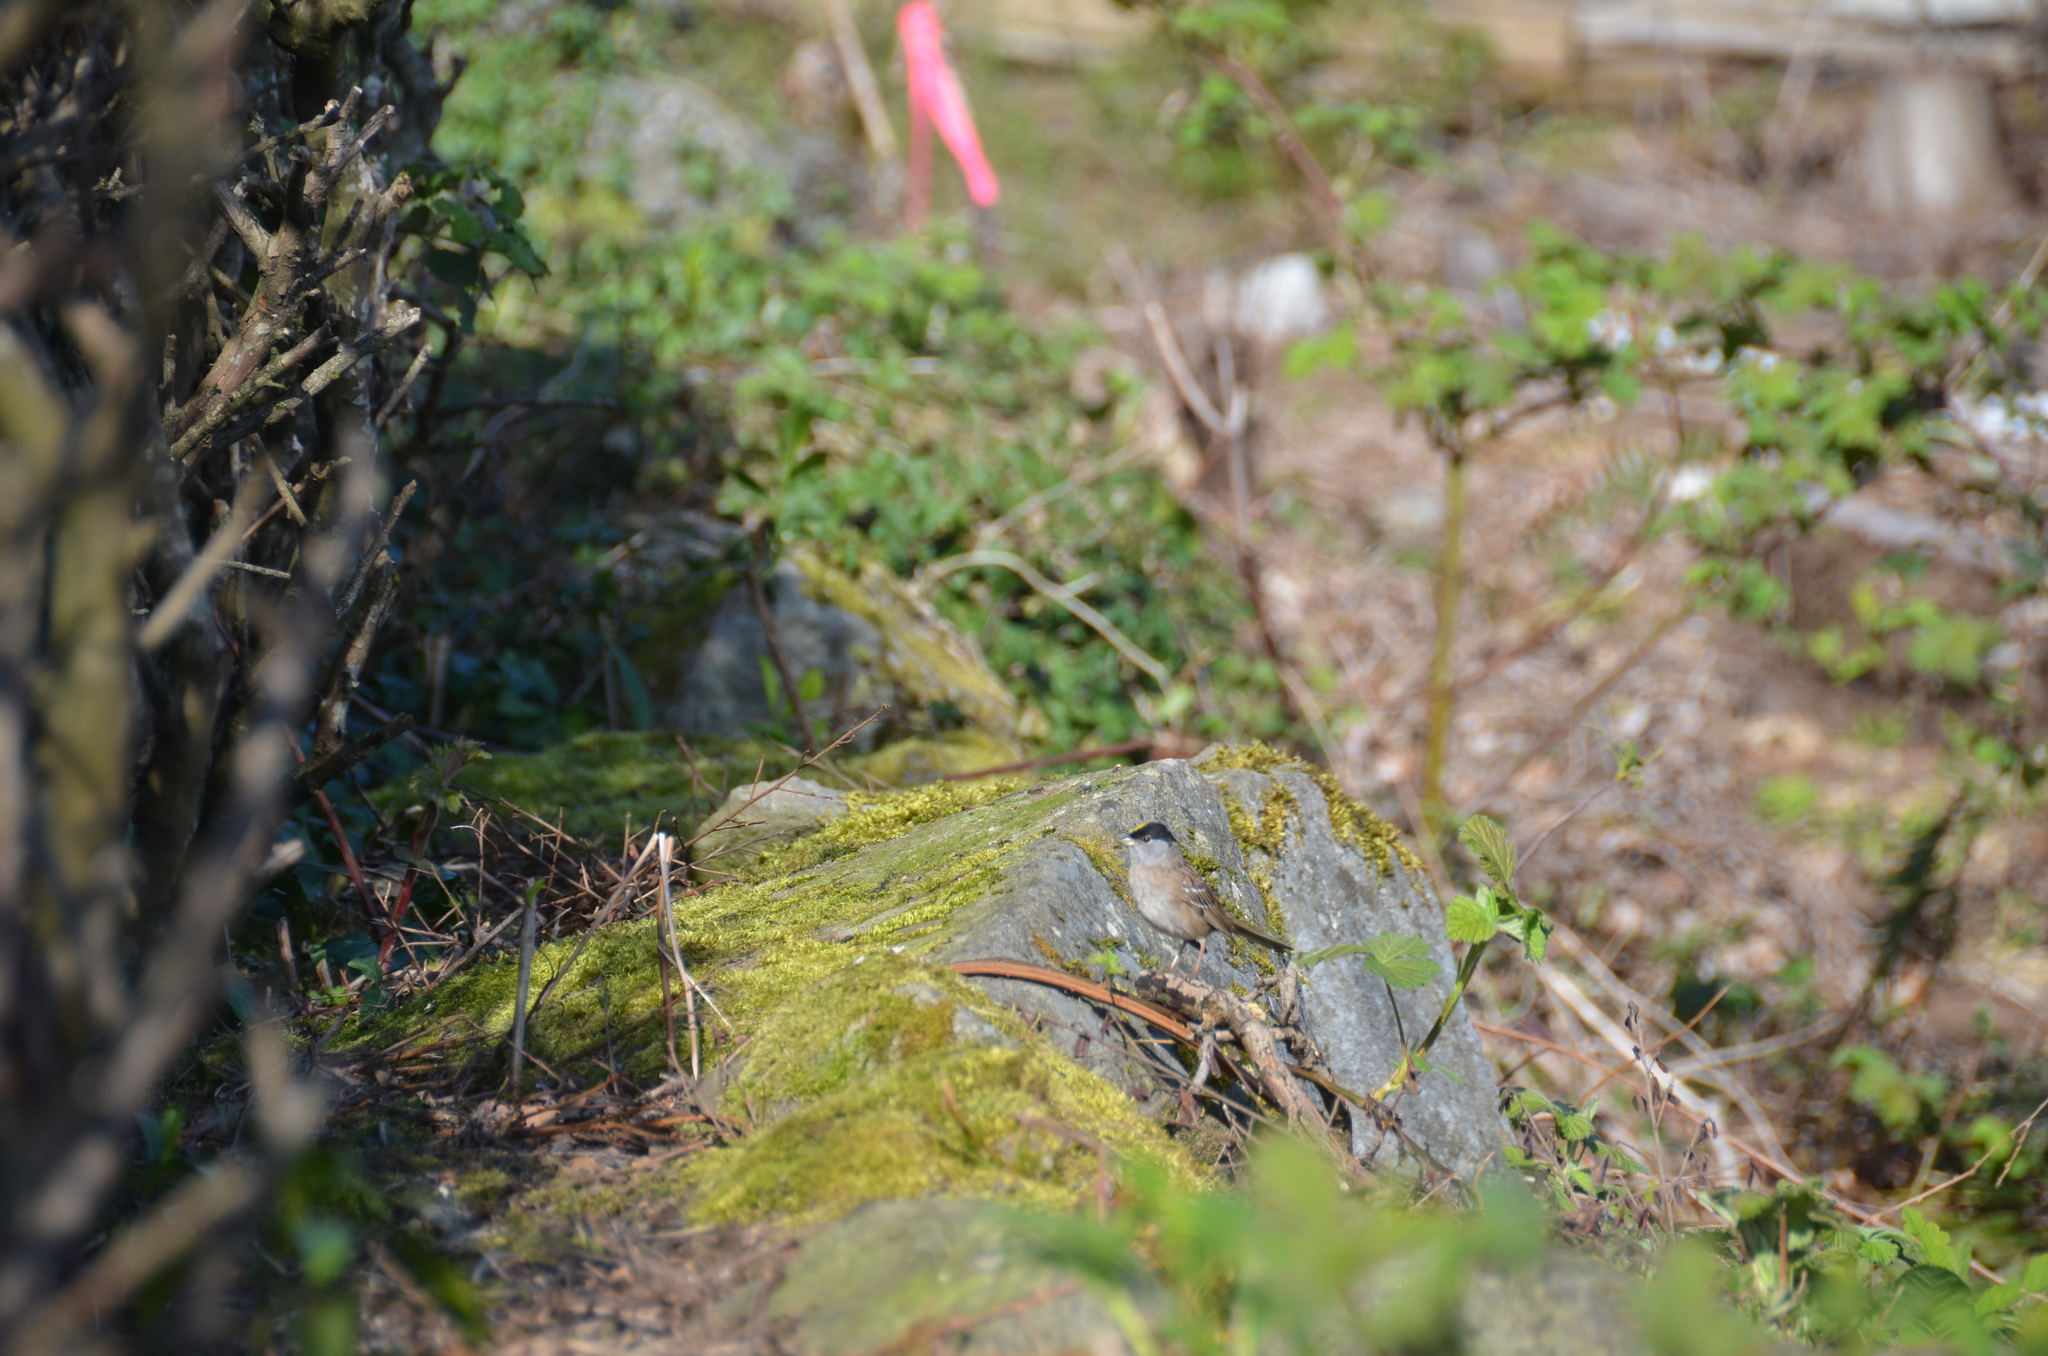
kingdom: Animalia
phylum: Chordata
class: Aves
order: Passeriformes
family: Passerellidae
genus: Zonotrichia
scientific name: Zonotrichia atricapilla
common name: Golden-crowned sparrow
